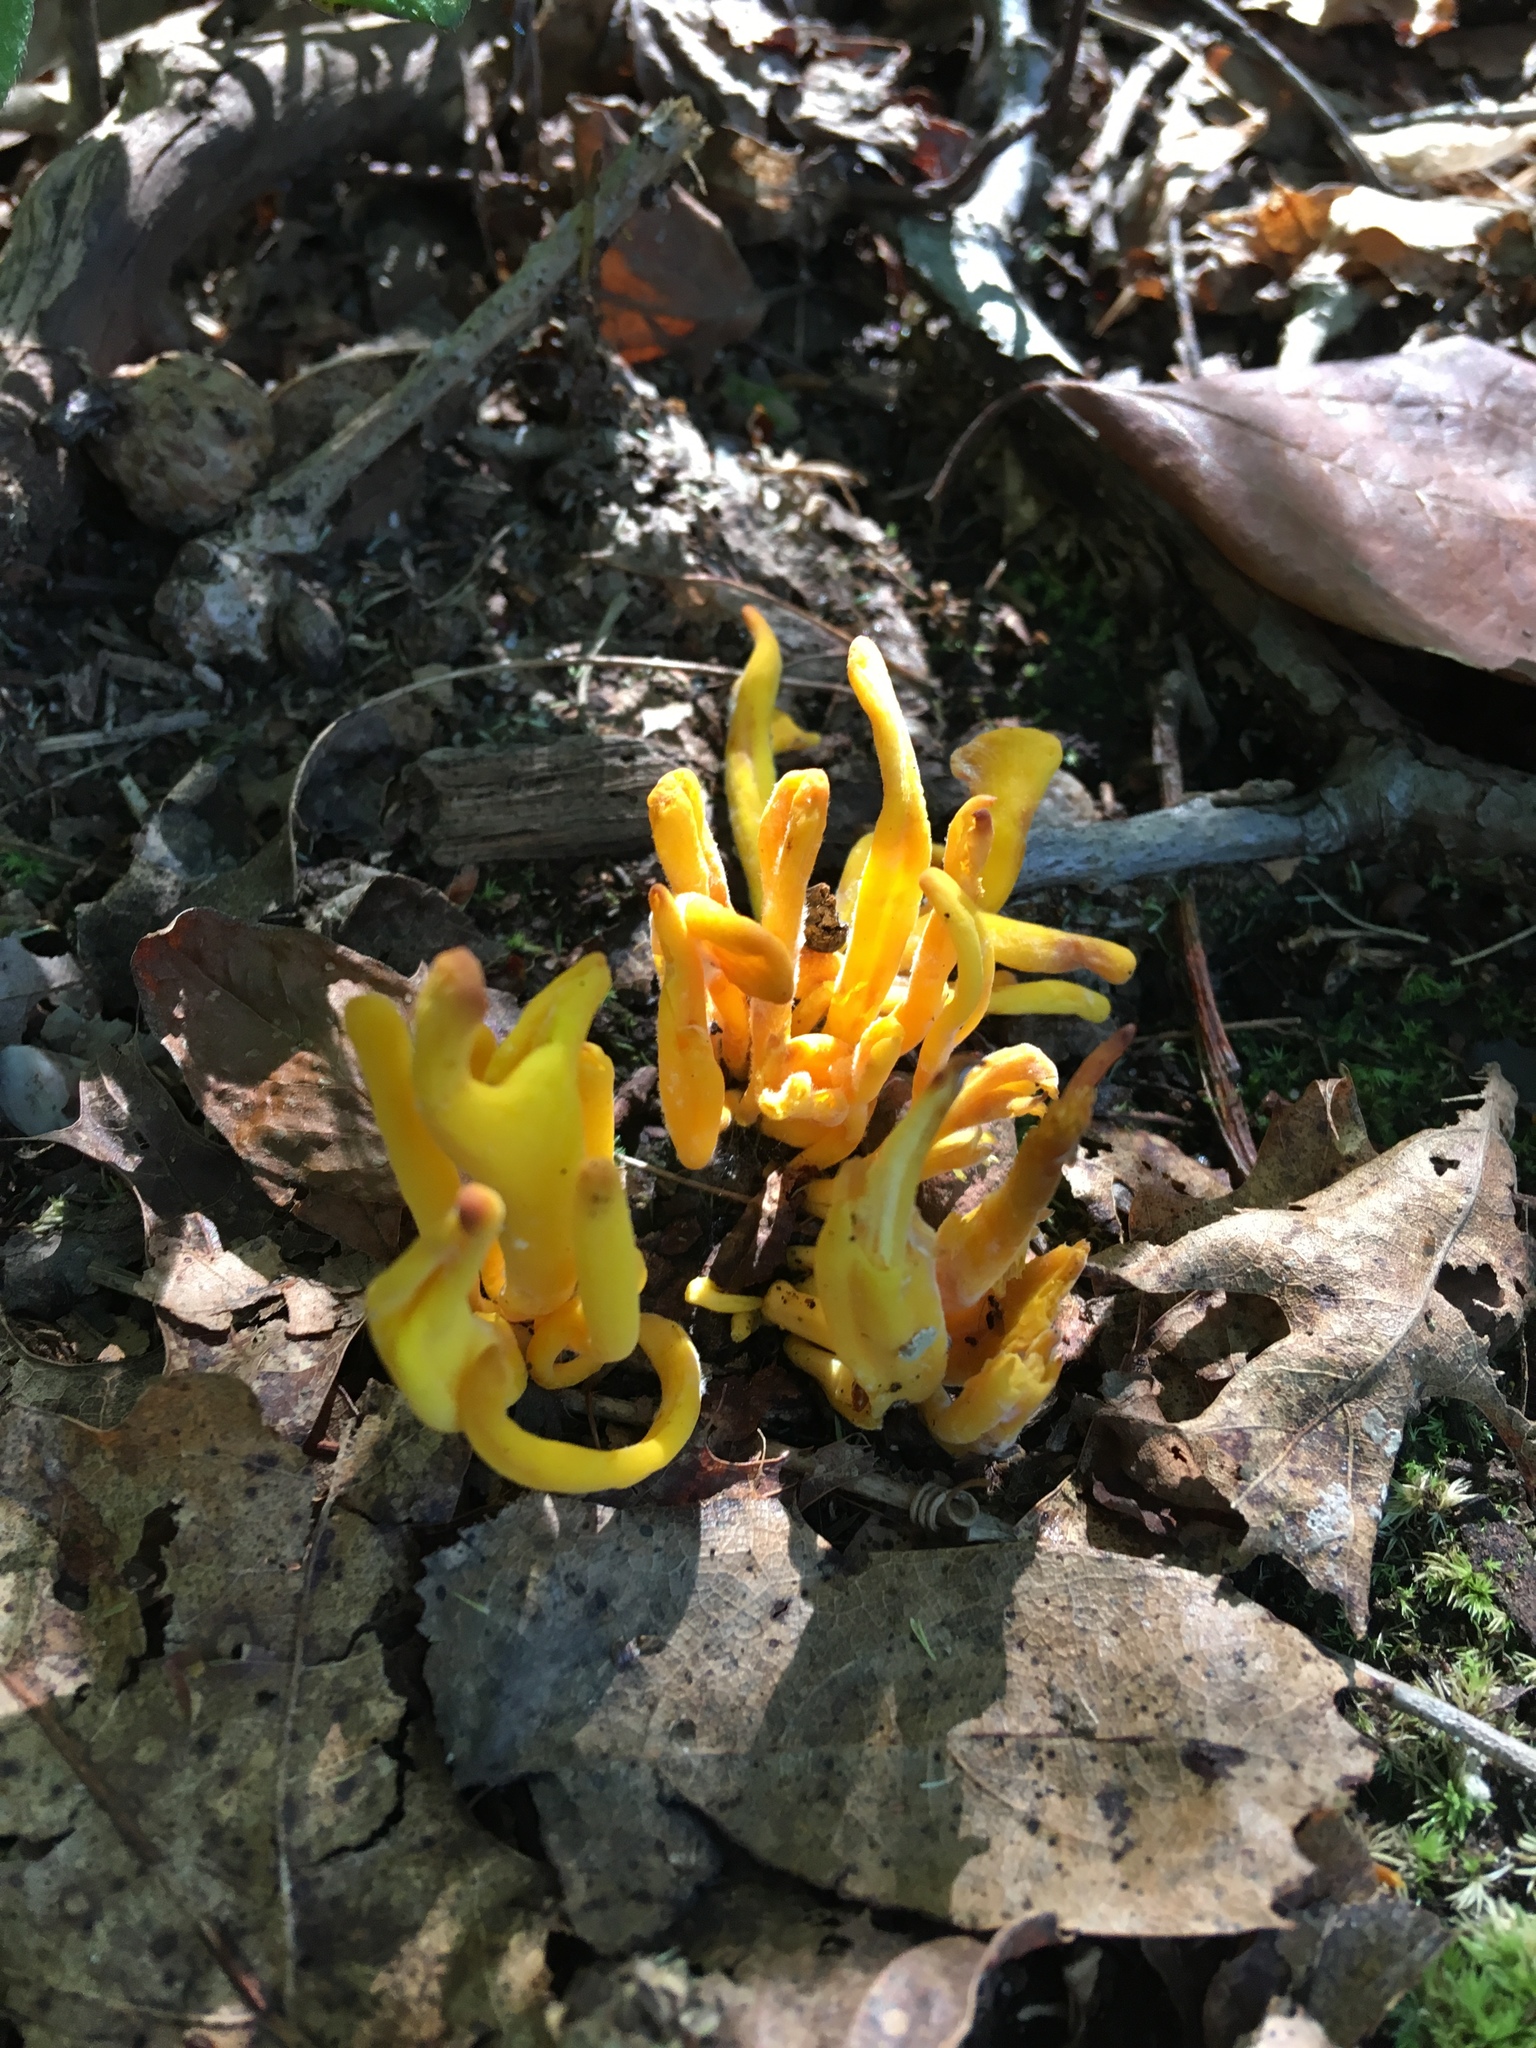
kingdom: Fungi
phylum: Basidiomycota
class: Agaricomycetes
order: Agaricales
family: Clavariaceae
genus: Clavulinopsis
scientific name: Clavulinopsis fusiformis
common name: Golden spindles
